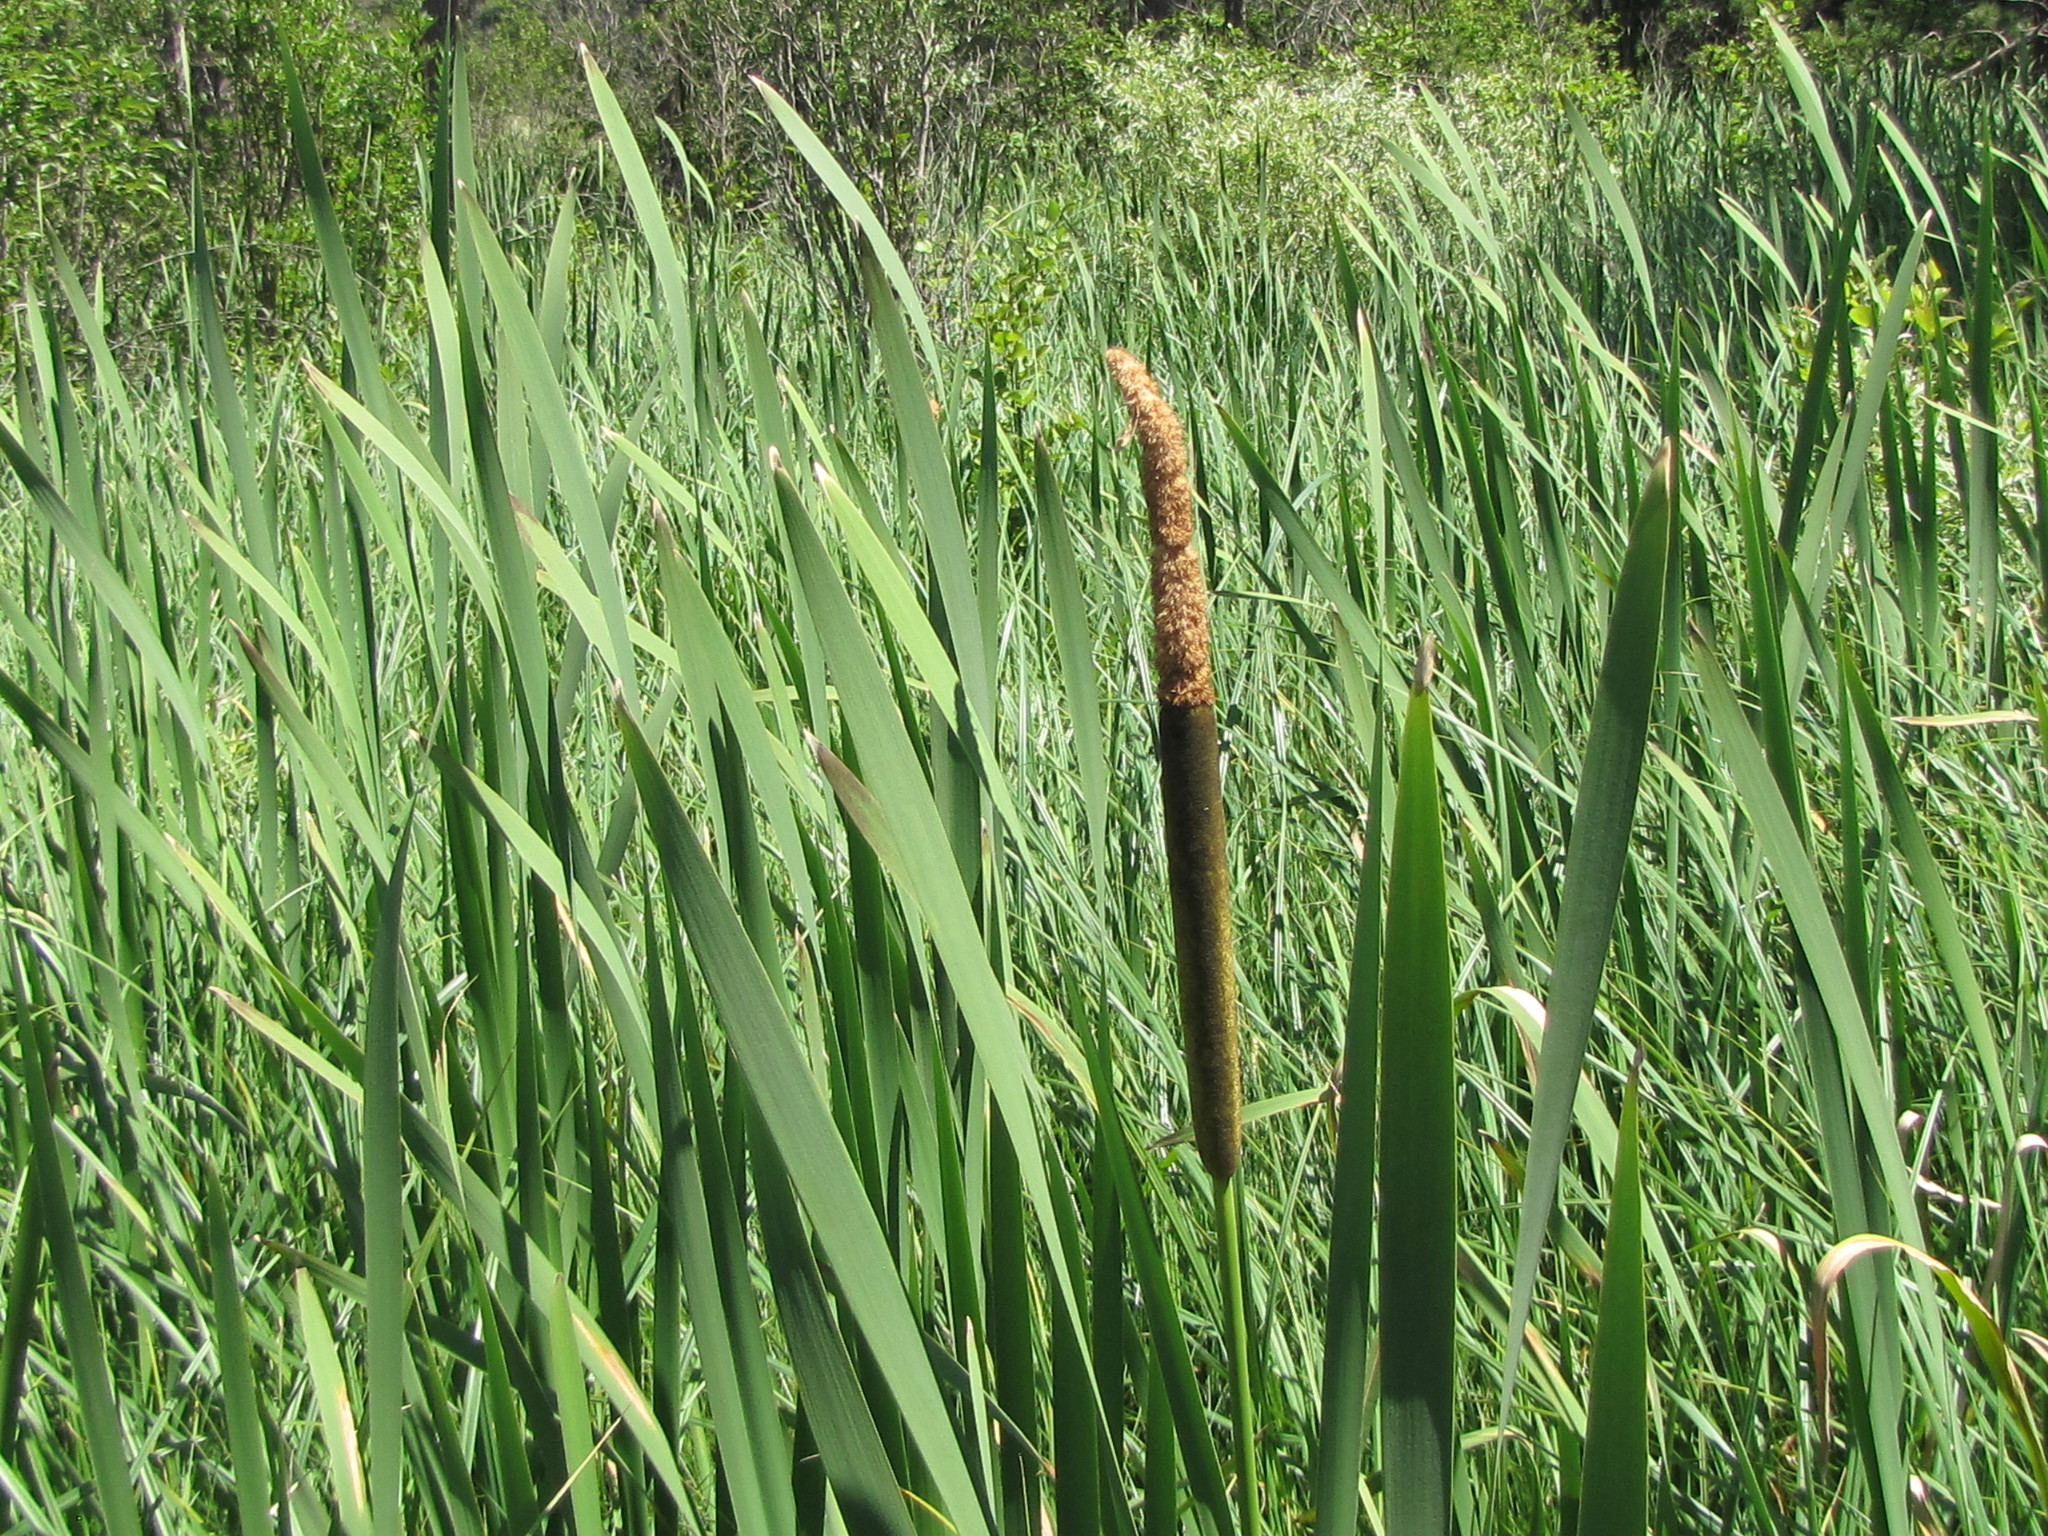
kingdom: Plantae
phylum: Tracheophyta
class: Liliopsida
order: Poales
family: Typhaceae
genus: Typha
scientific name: Typha latifolia
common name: Broadleaf cattail
